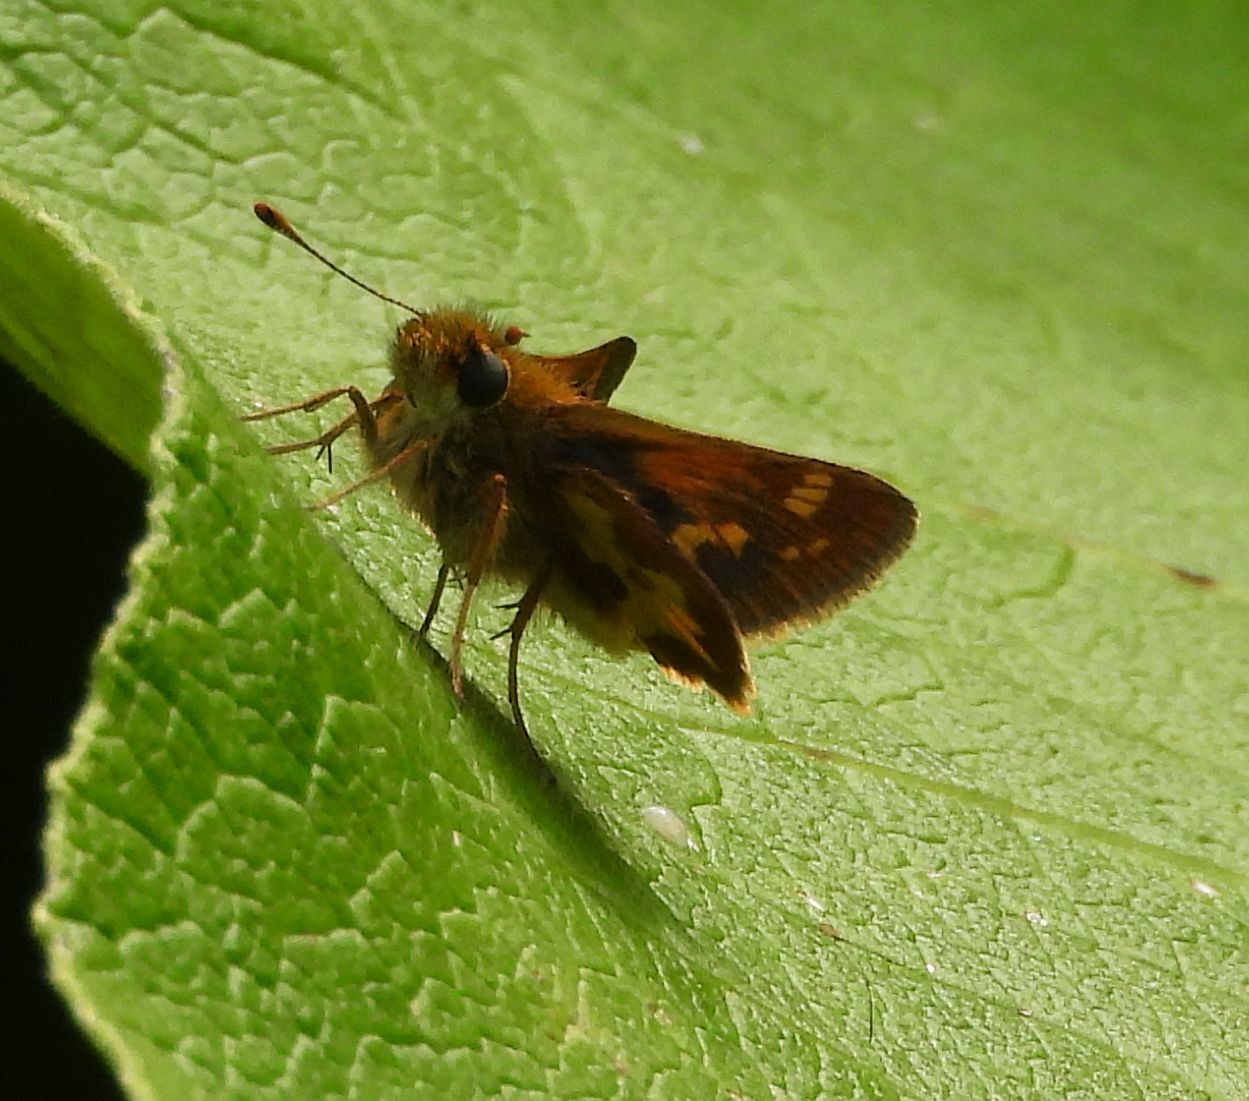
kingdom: Animalia
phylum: Arthropoda
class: Insecta
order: Lepidoptera
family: Hesperiidae
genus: Polites
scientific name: Polites coras
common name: Peck's skipper
